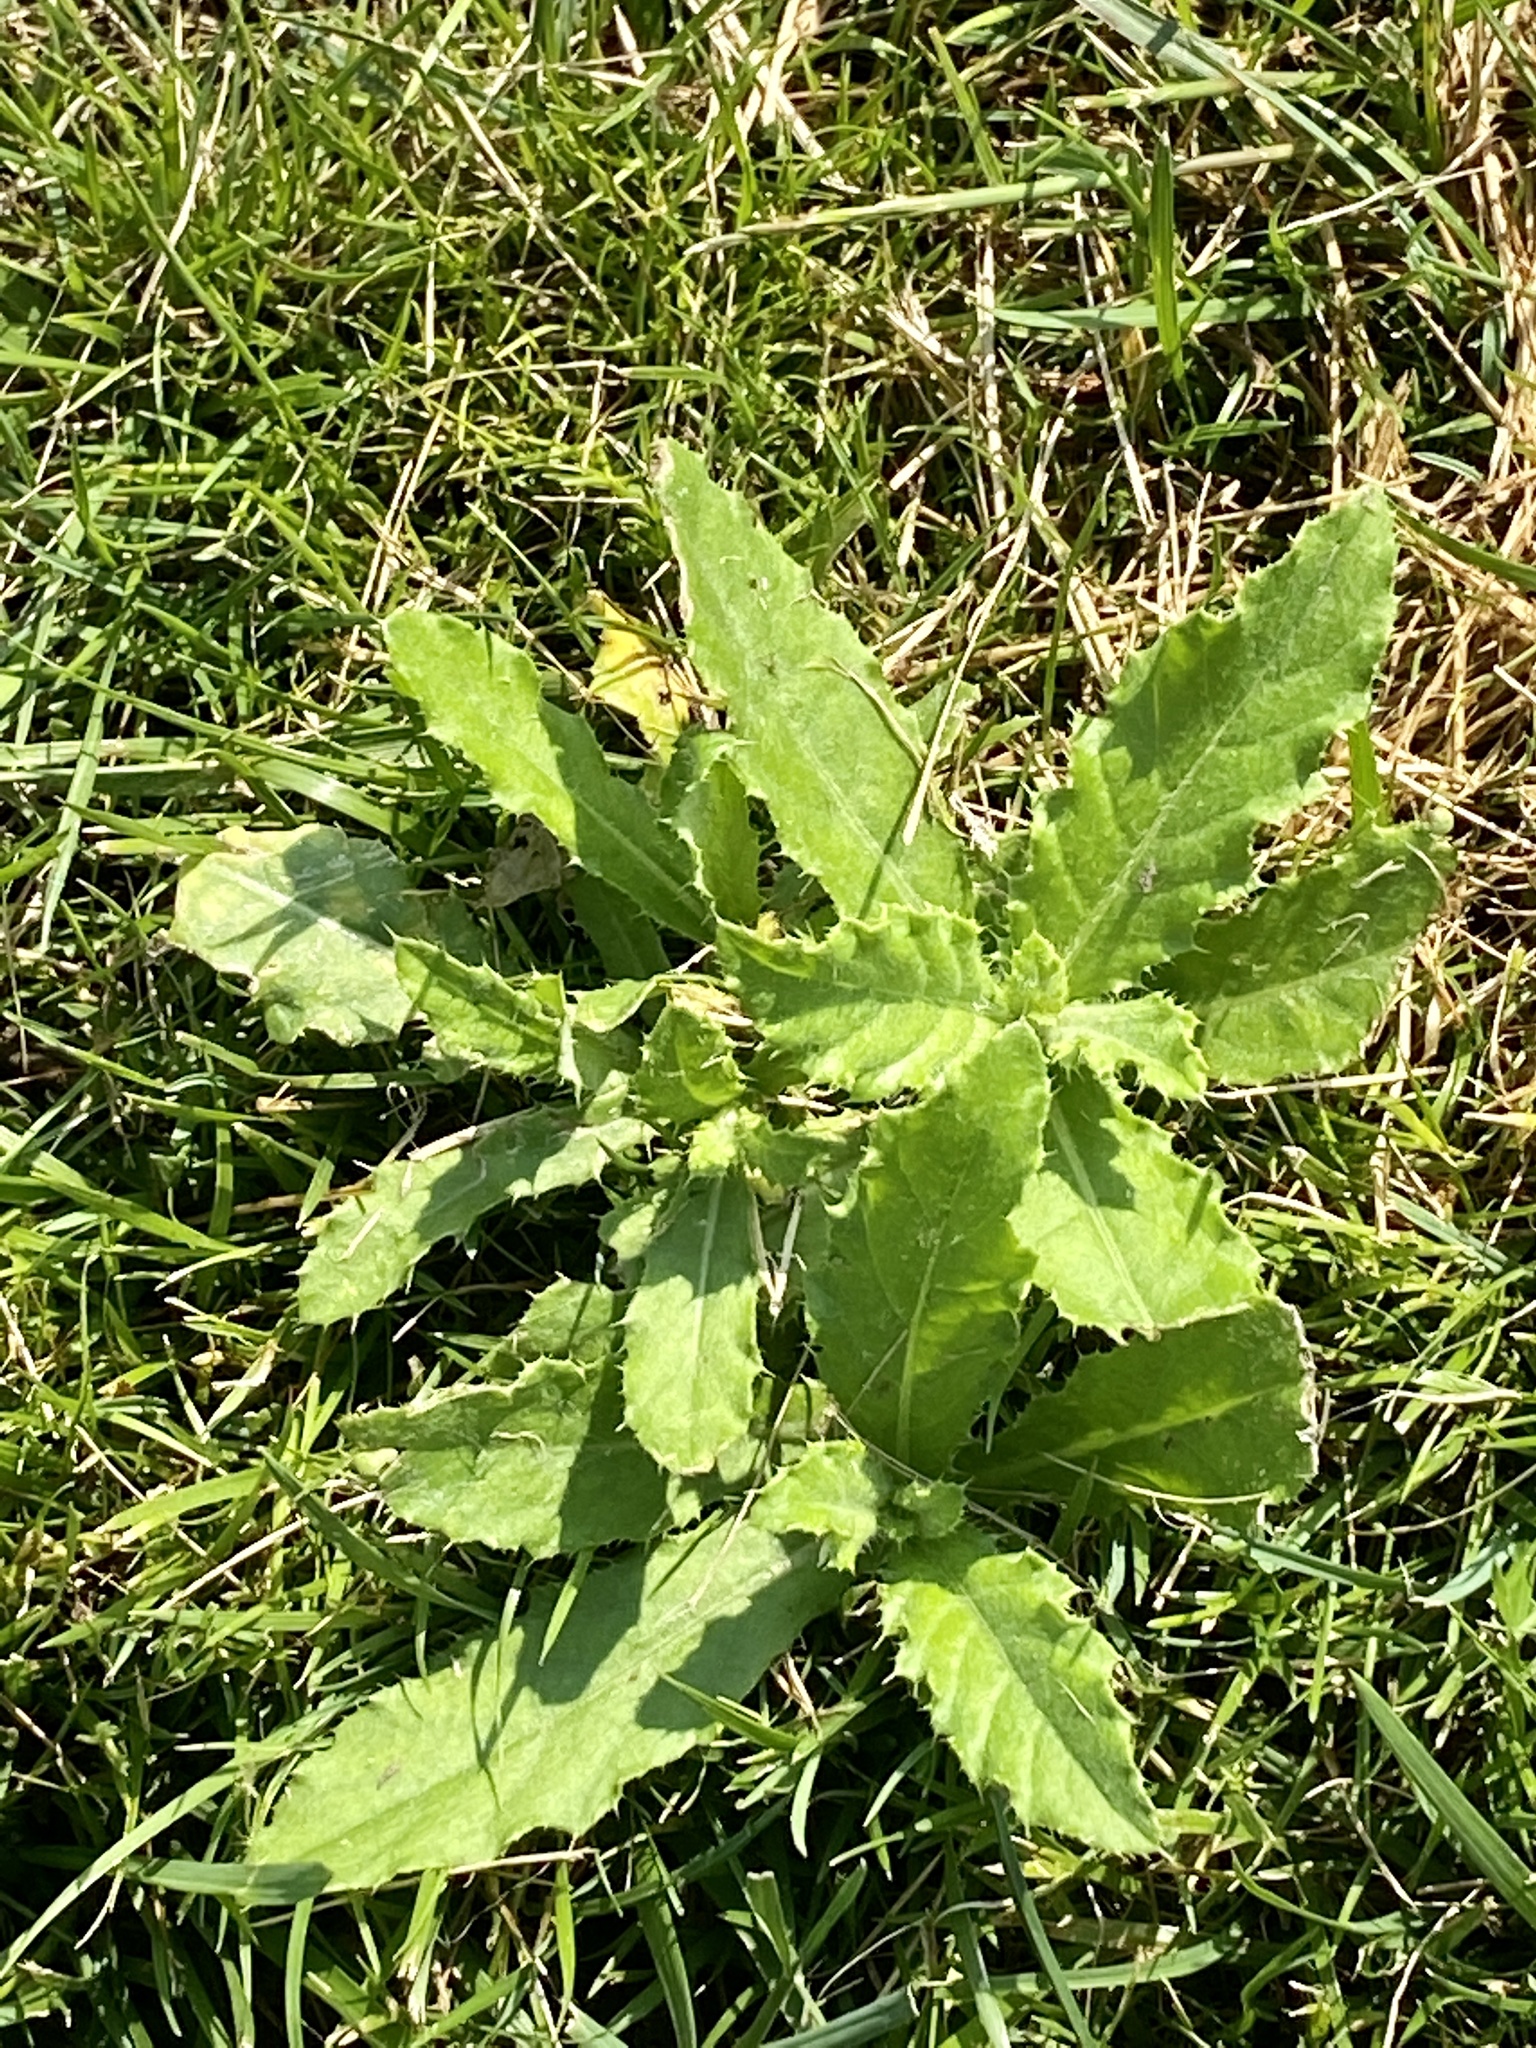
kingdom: Plantae
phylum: Tracheophyta
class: Magnoliopsida
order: Asterales
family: Asteraceae
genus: Cirsium
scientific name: Cirsium arvense
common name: Creeping thistle
